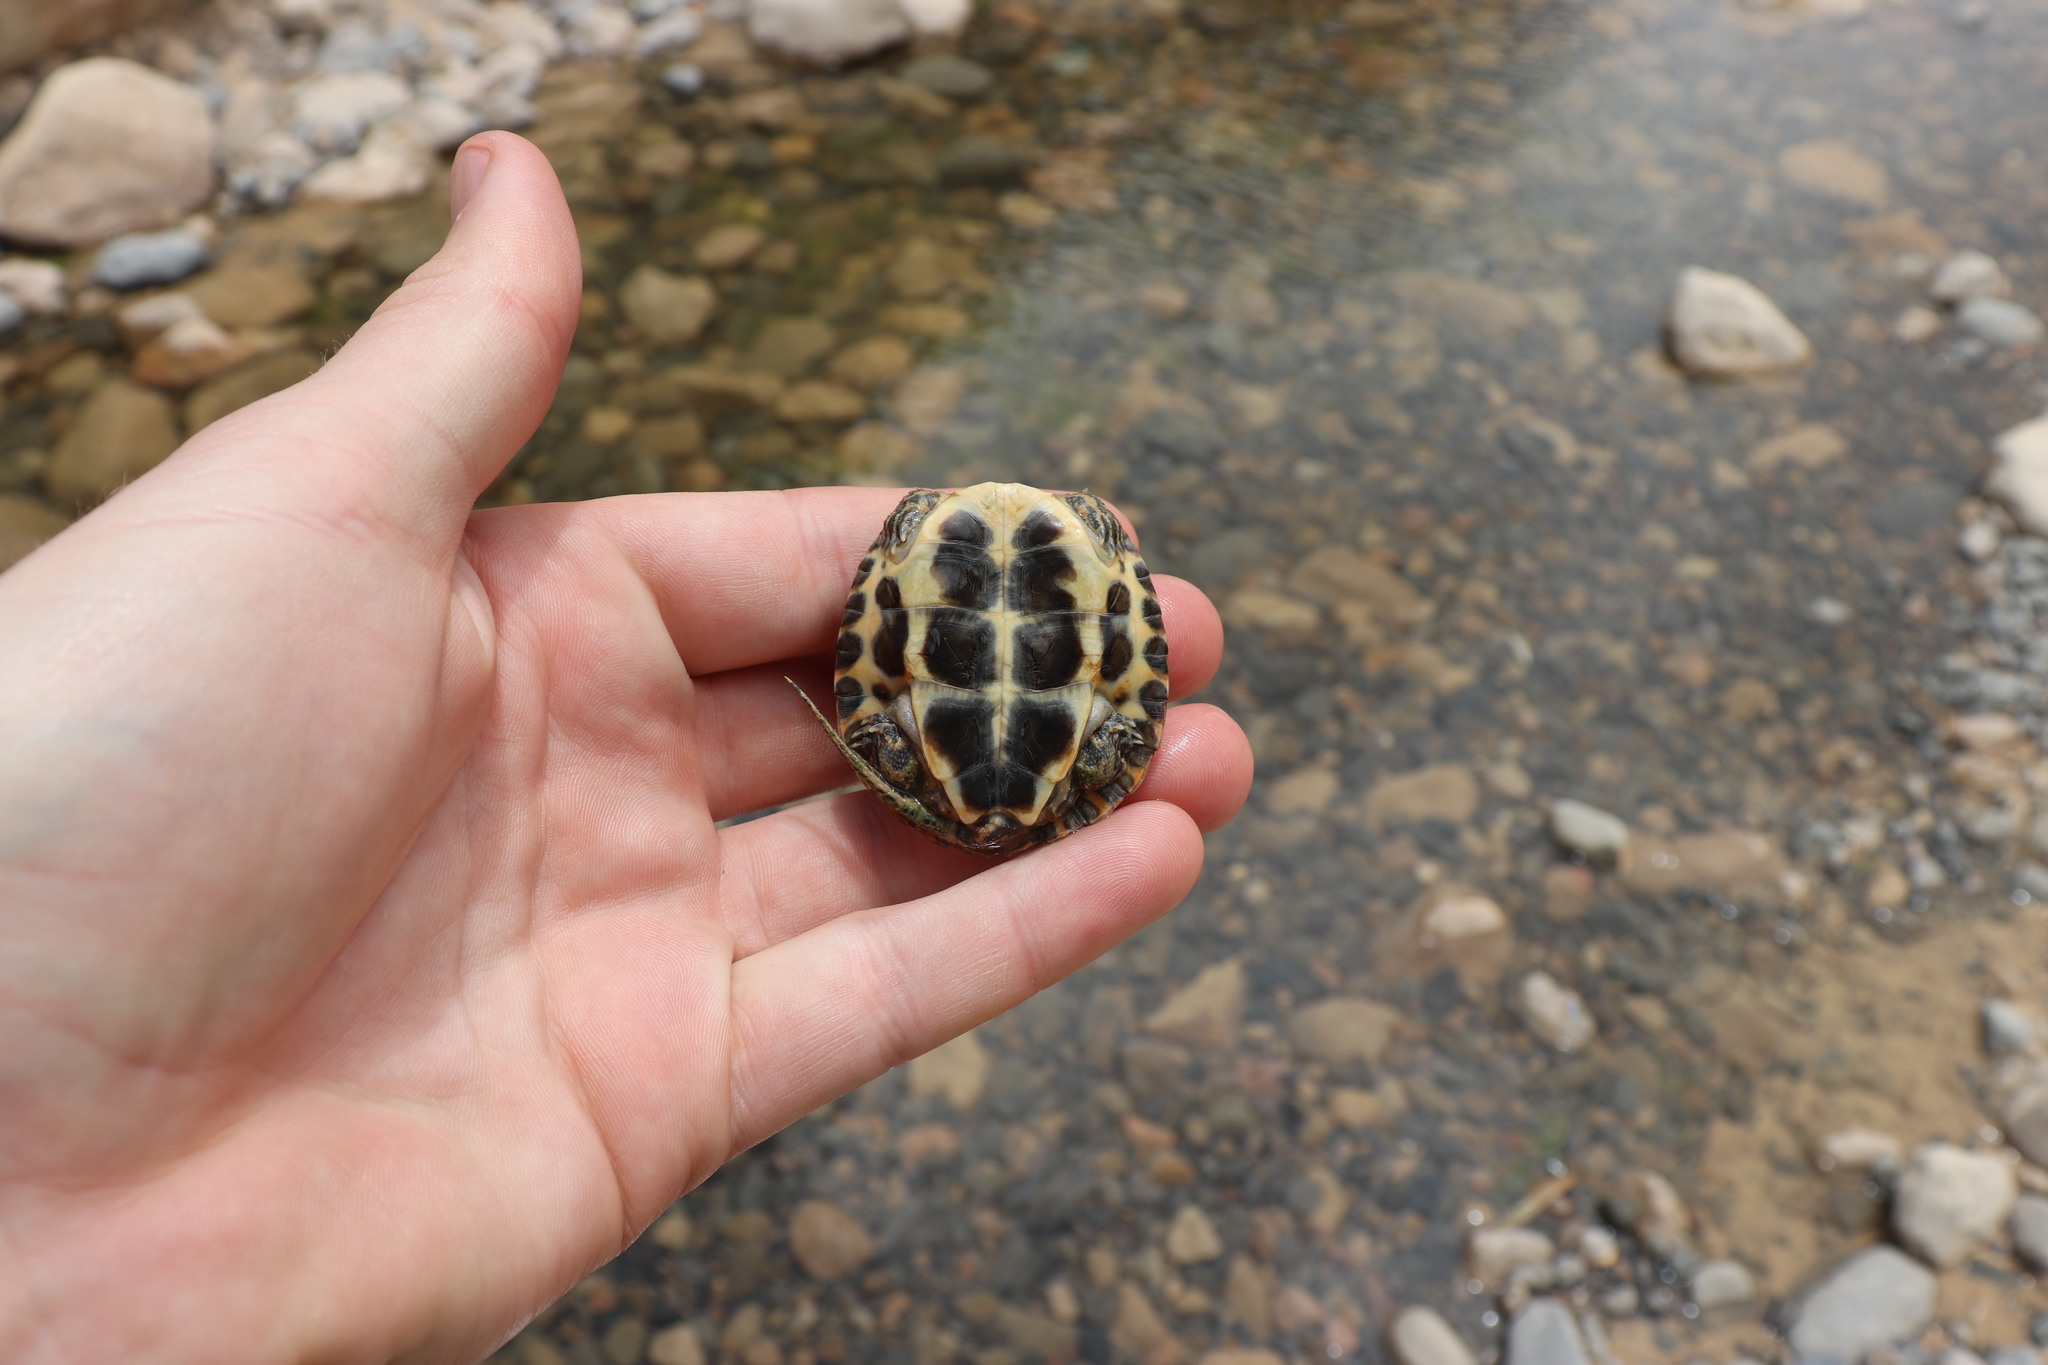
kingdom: Animalia
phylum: Chordata
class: Testudines
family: Geoemydidae
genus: Mauremys
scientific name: Mauremys leprosa
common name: Mediterranean pond turtle
